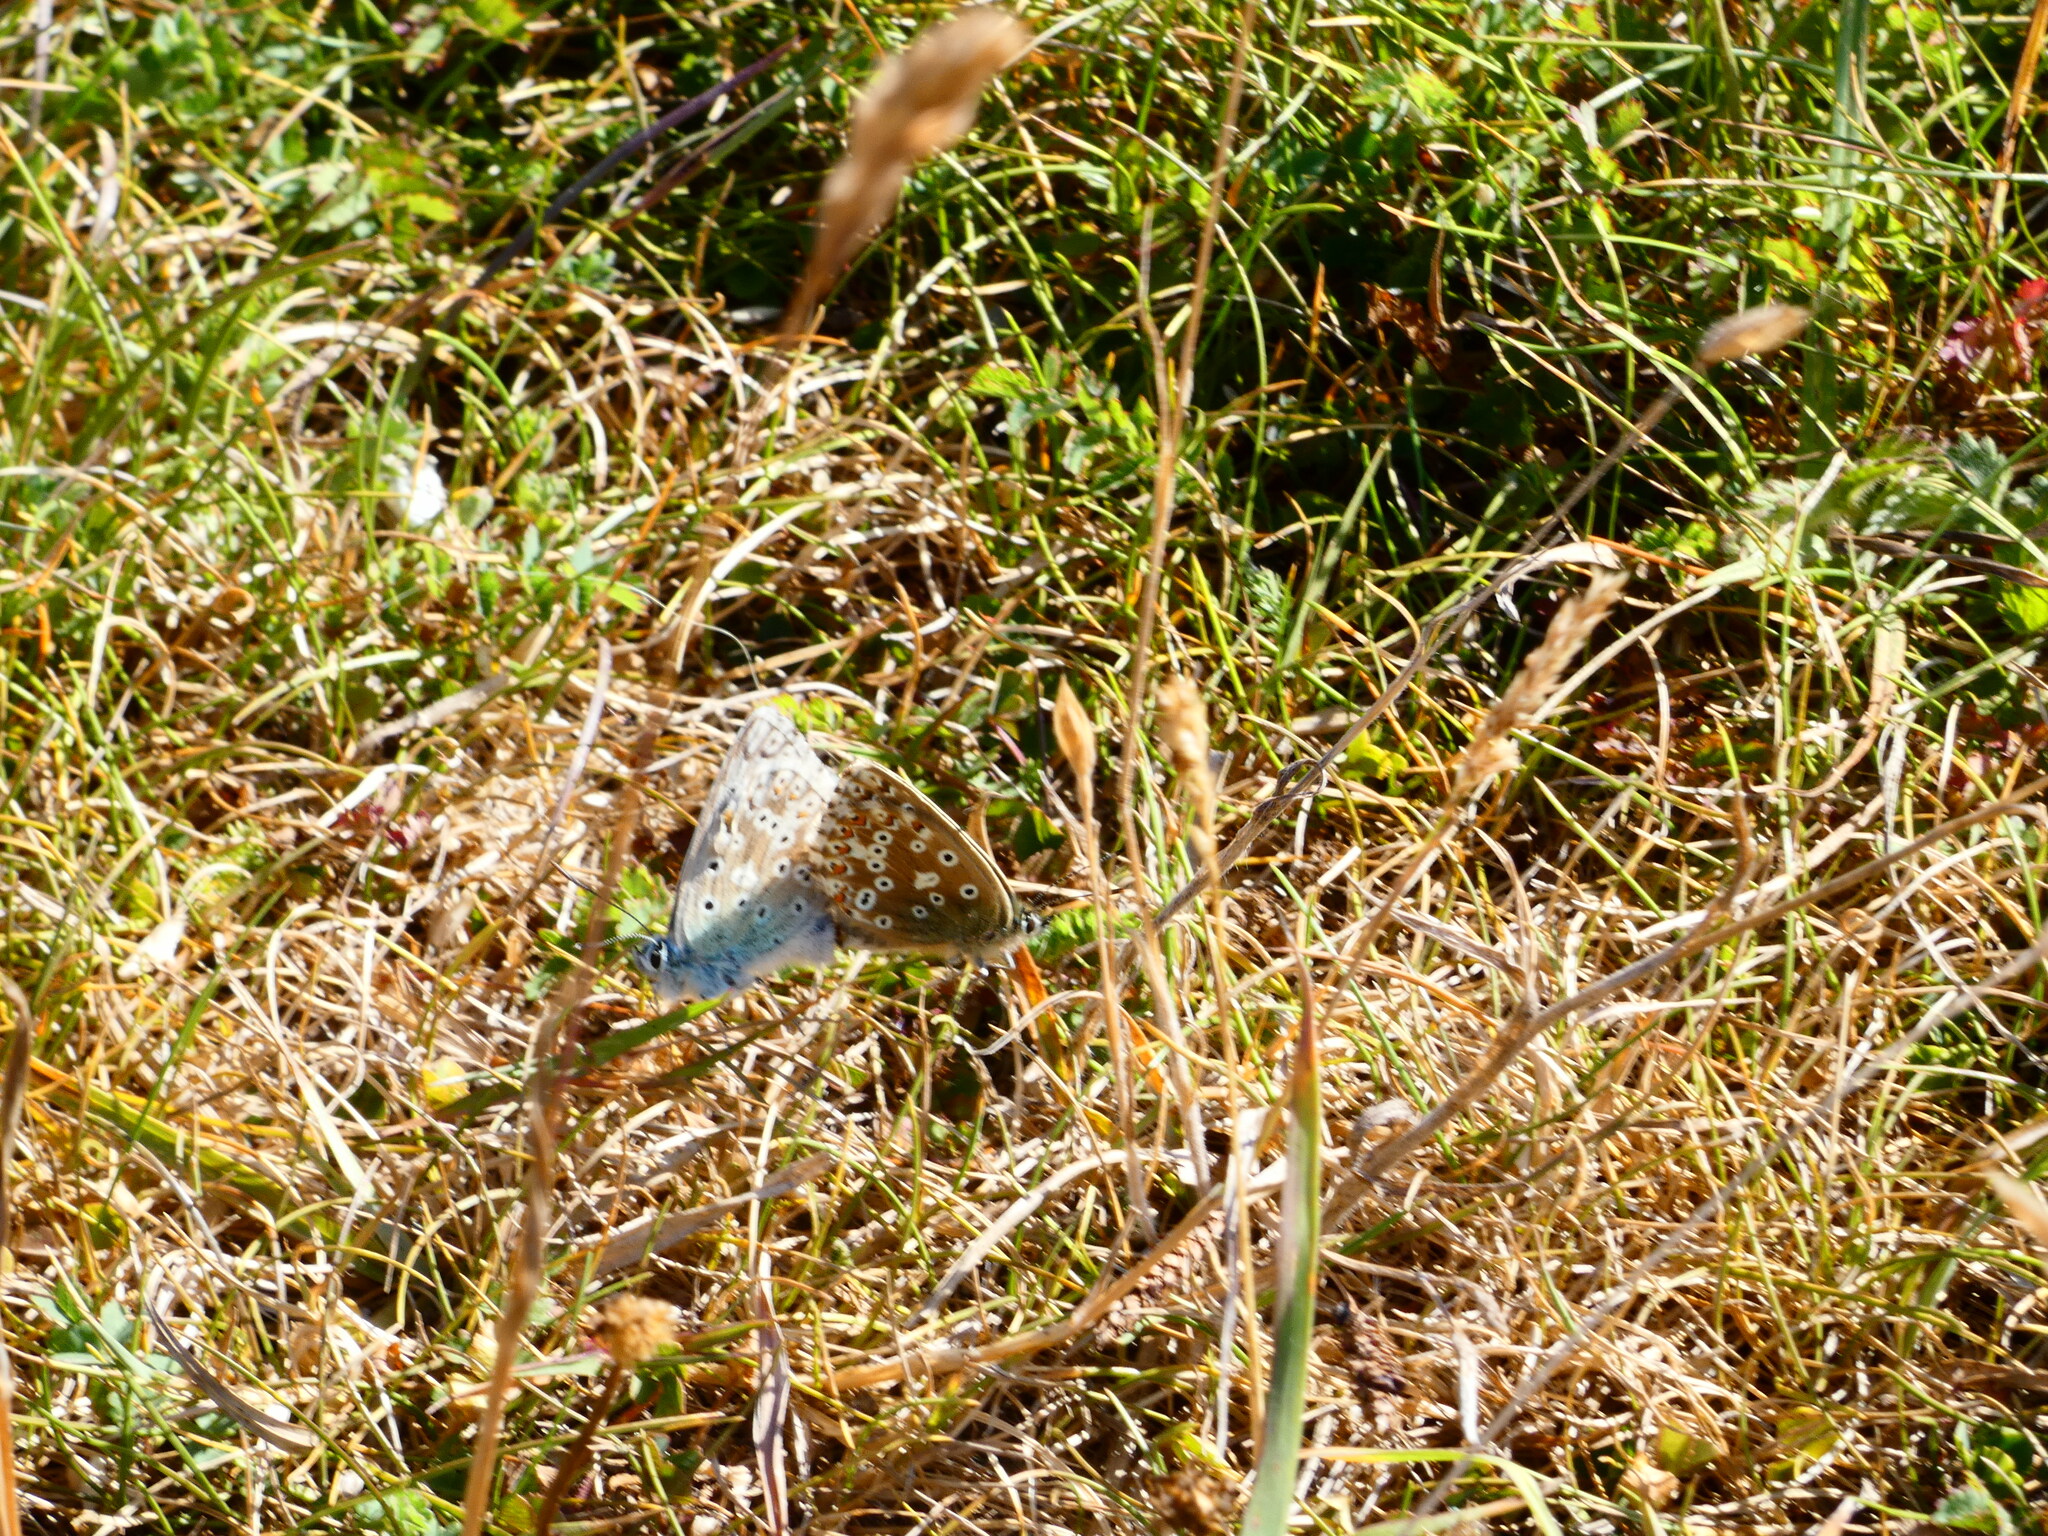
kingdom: Animalia
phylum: Arthropoda
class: Insecta
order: Lepidoptera
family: Lycaenidae
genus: Polyommatus
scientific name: Polyommatus icarus
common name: Common blue
